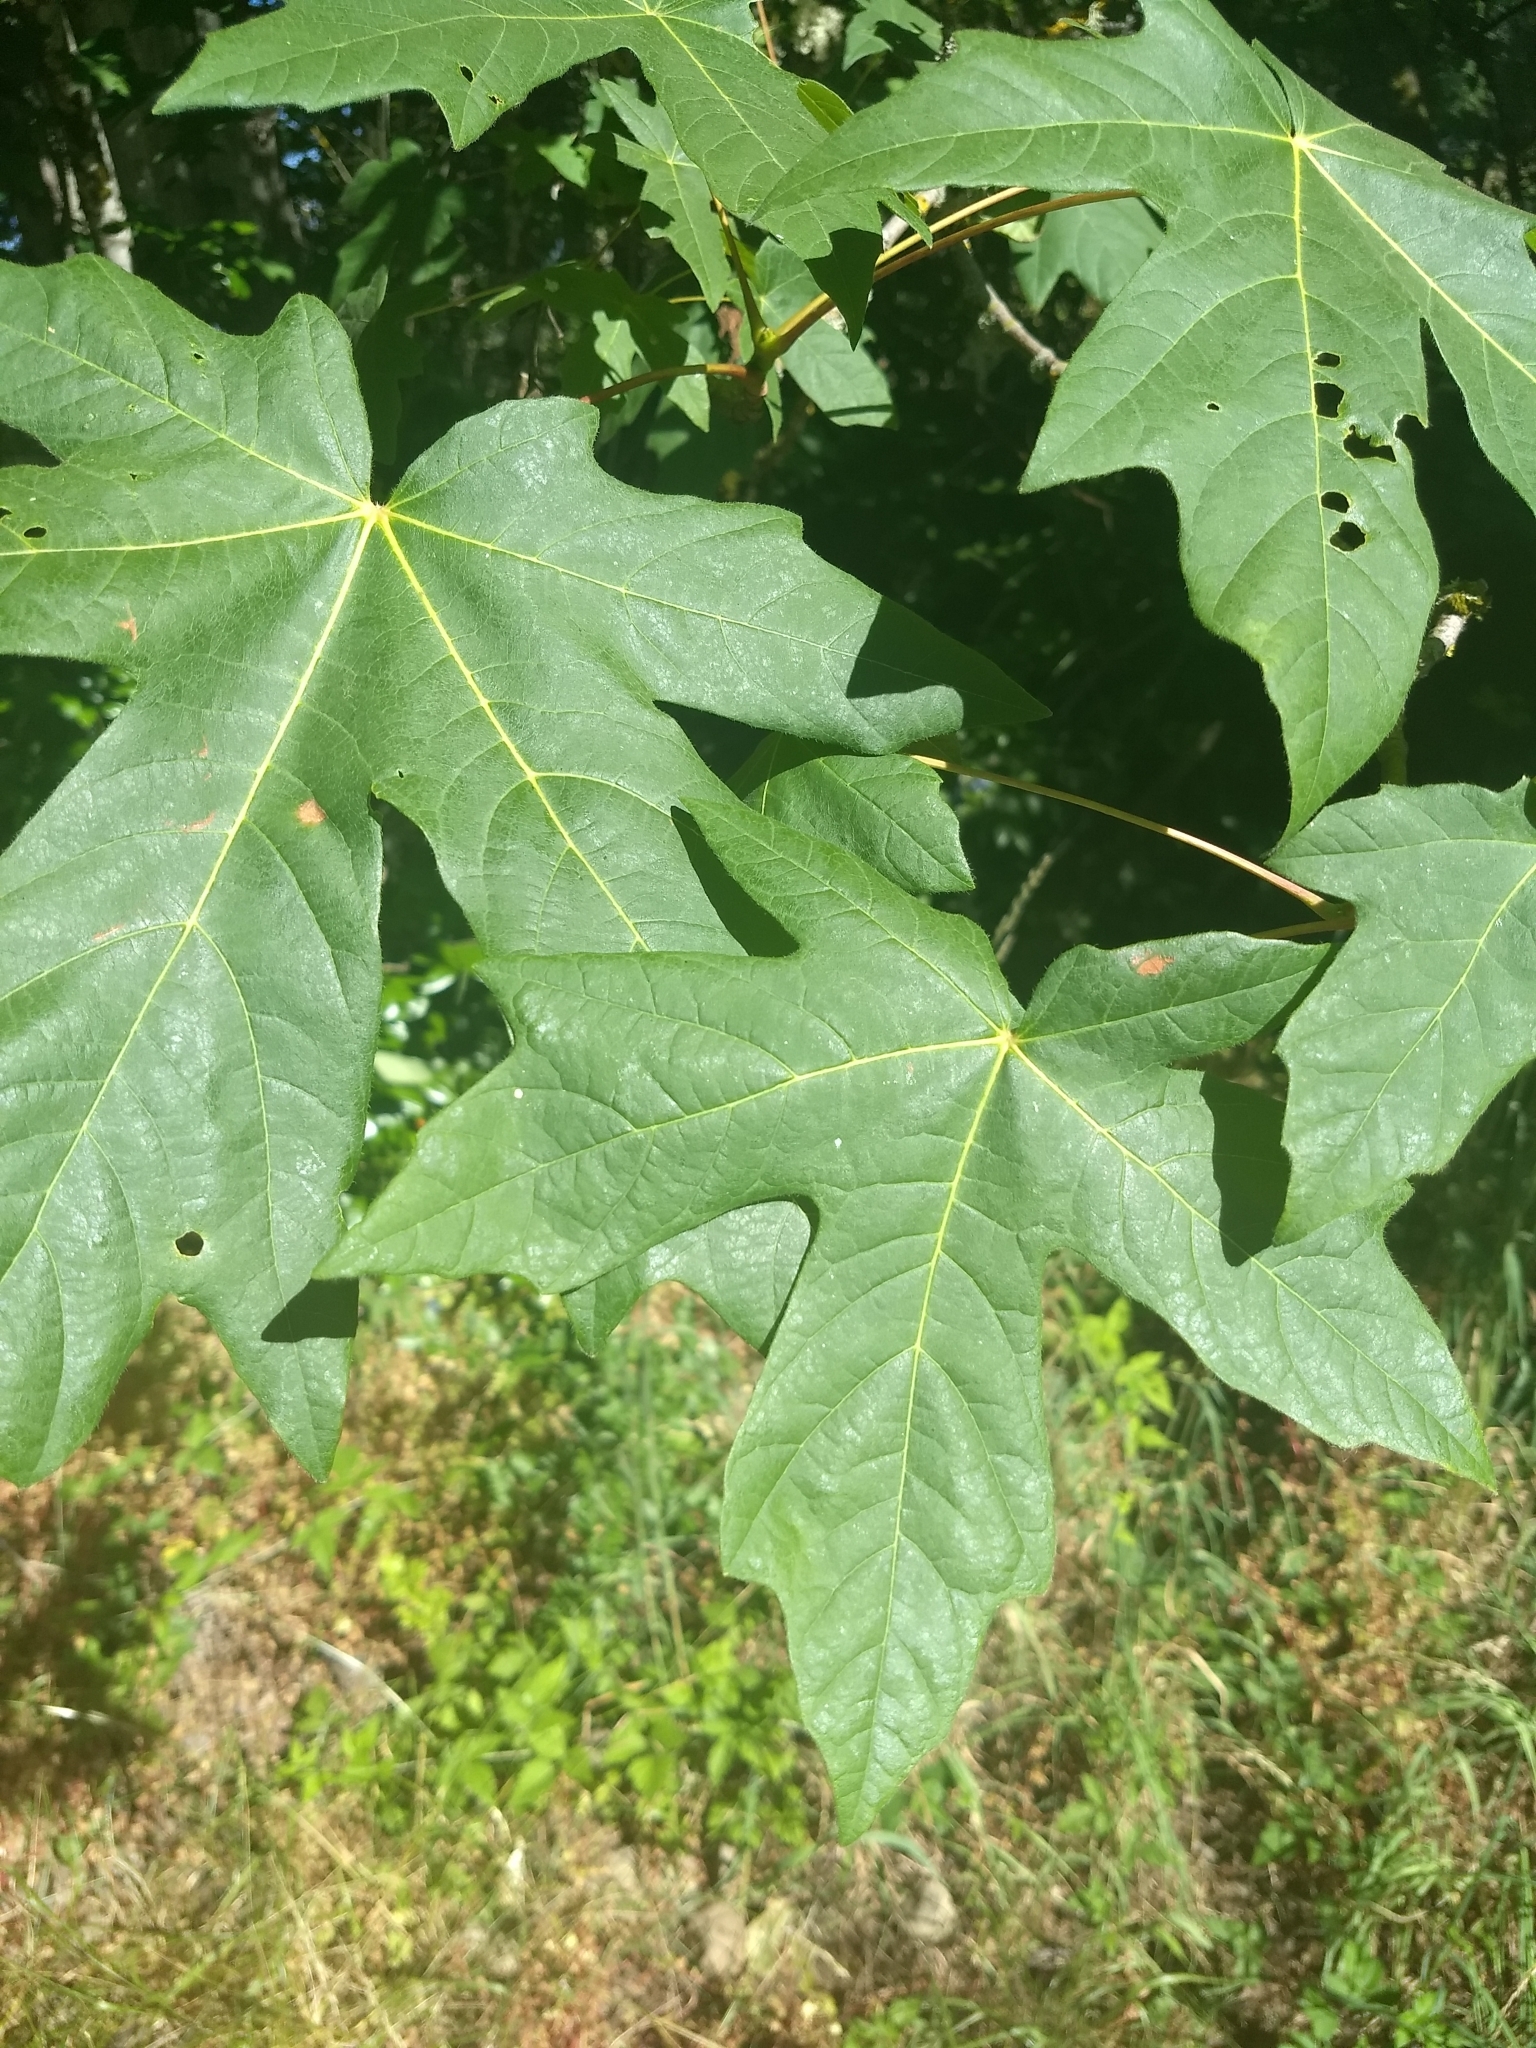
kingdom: Plantae
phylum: Tracheophyta
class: Magnoliopsida
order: Sapindales
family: Sapindaceae
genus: Acer
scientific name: Acer macrophyllum
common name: Oregon maple
